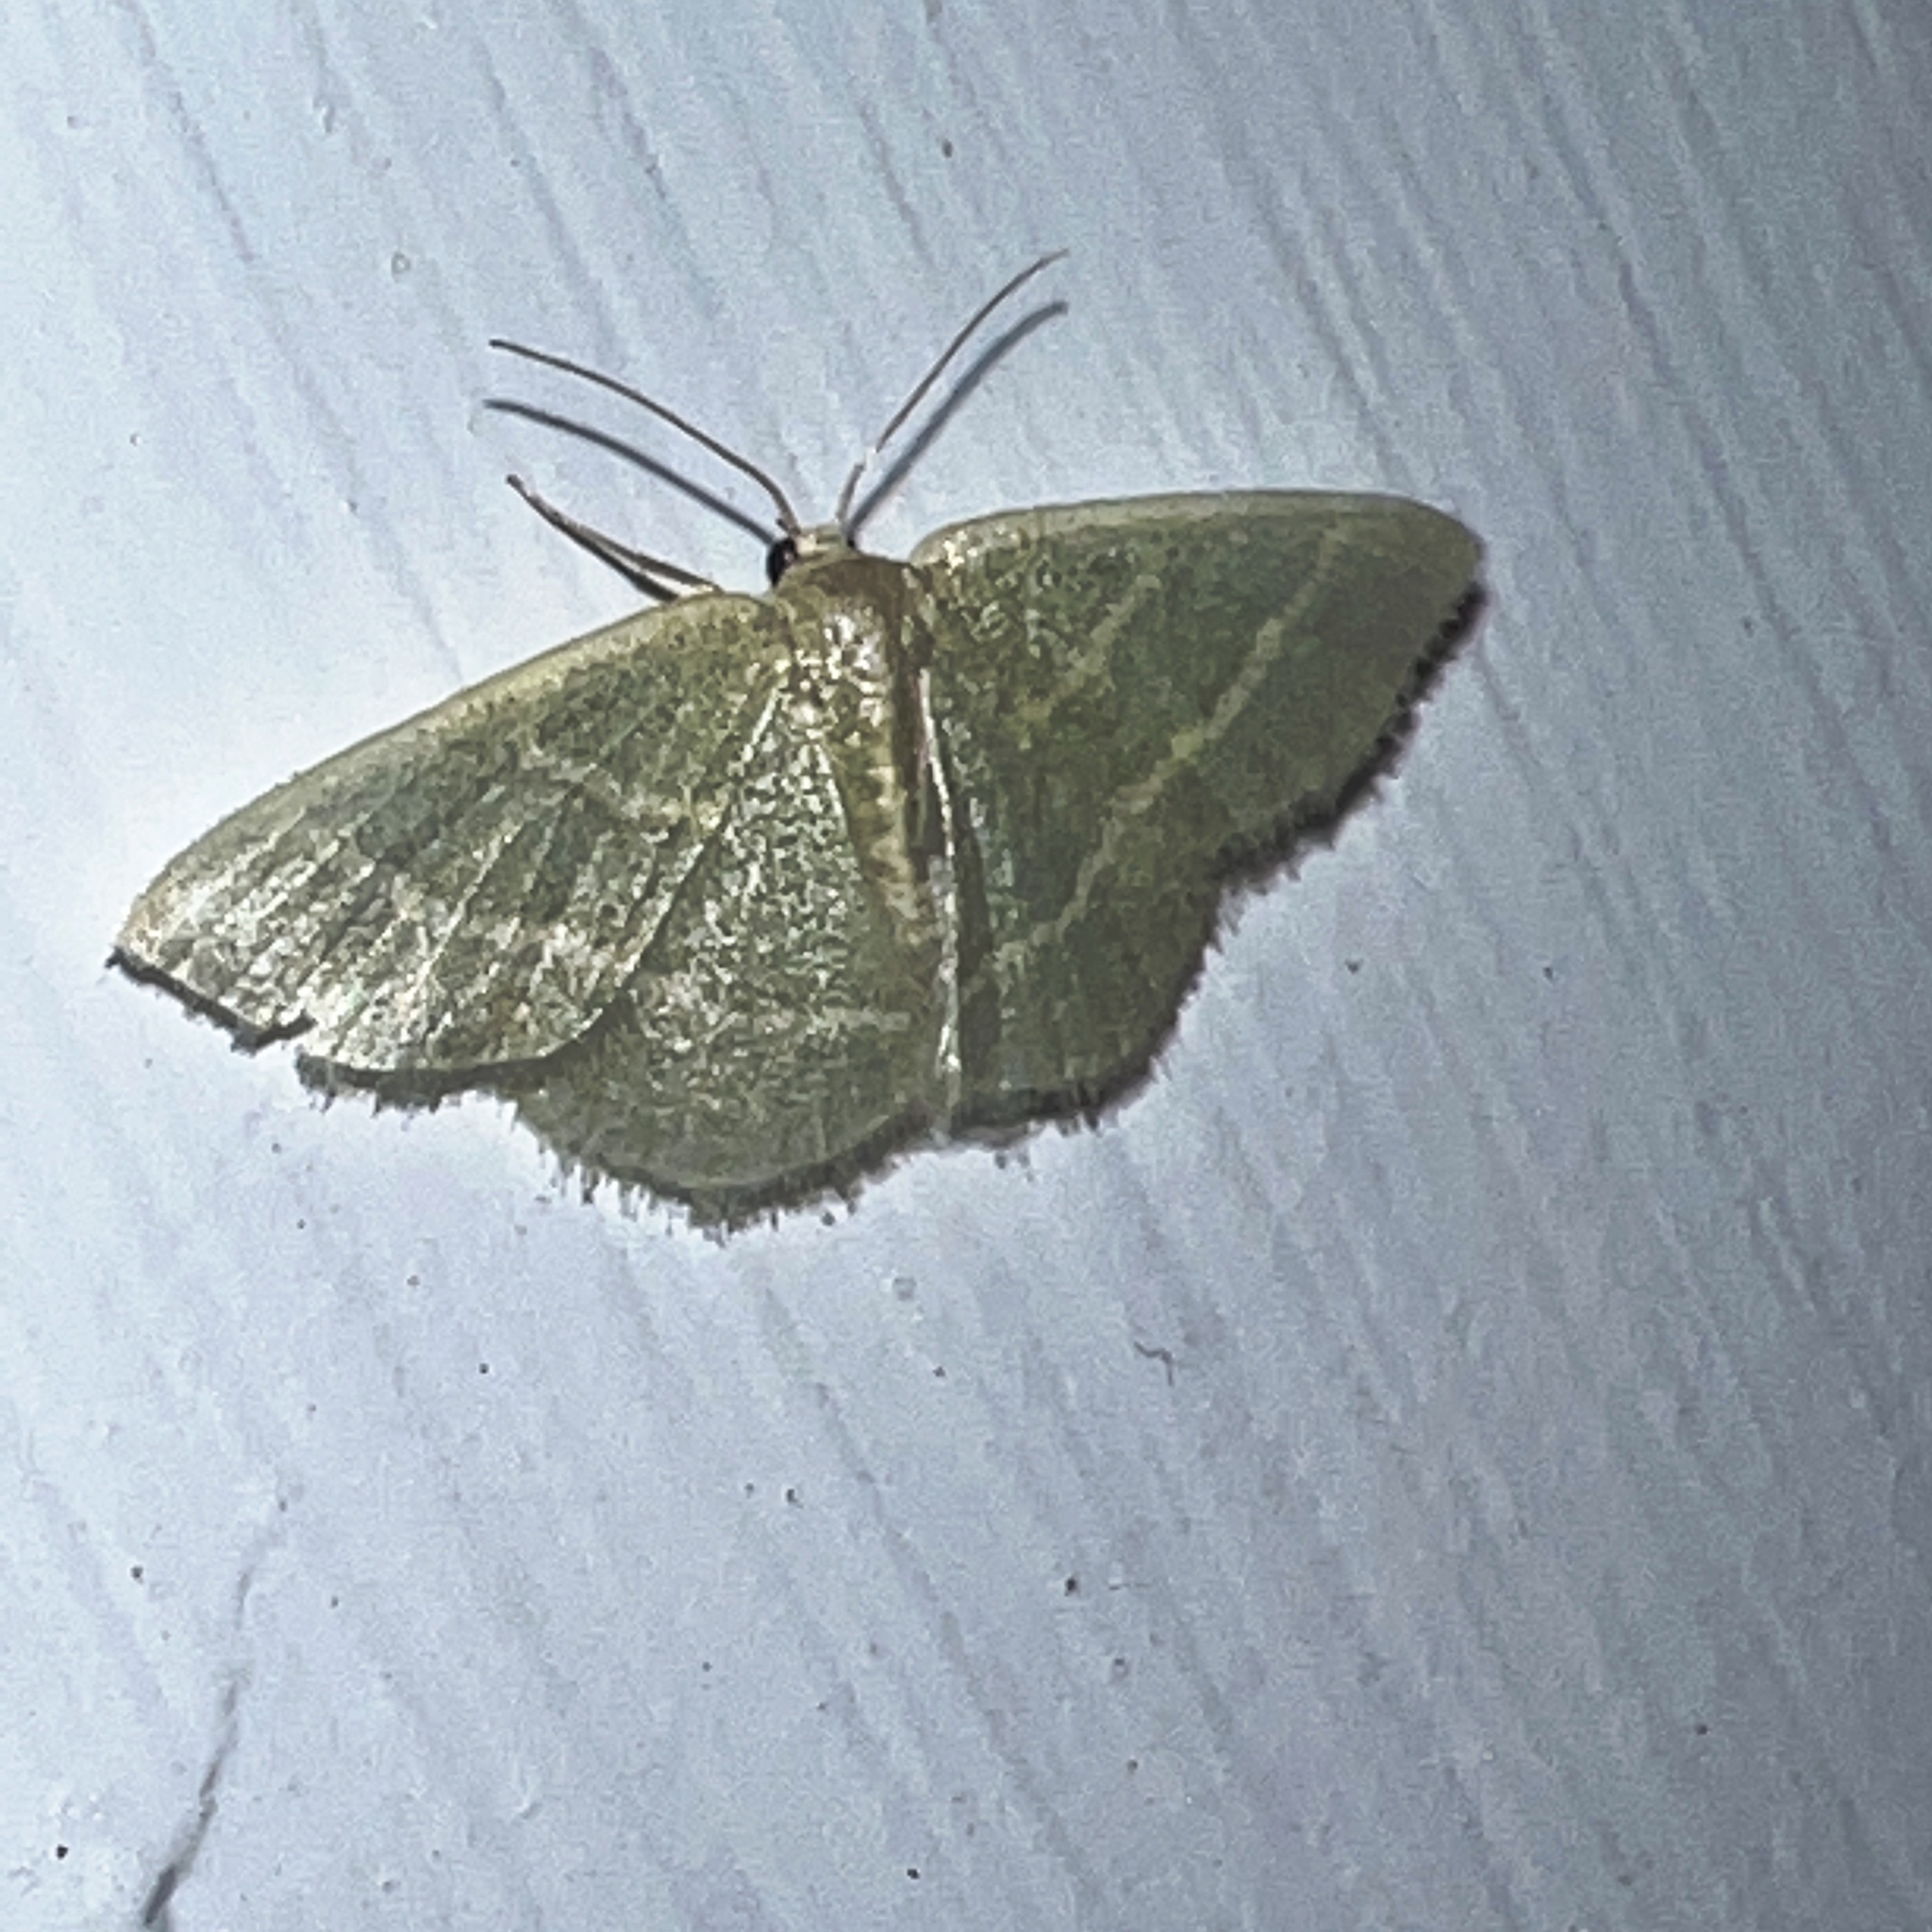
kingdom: Animalia
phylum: Arthropoda
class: Insecta
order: Lepidoptera
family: Geometridae
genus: Chlorochlamys
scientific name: Chlorochlamys chloroleucaria
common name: Blackberry looper
